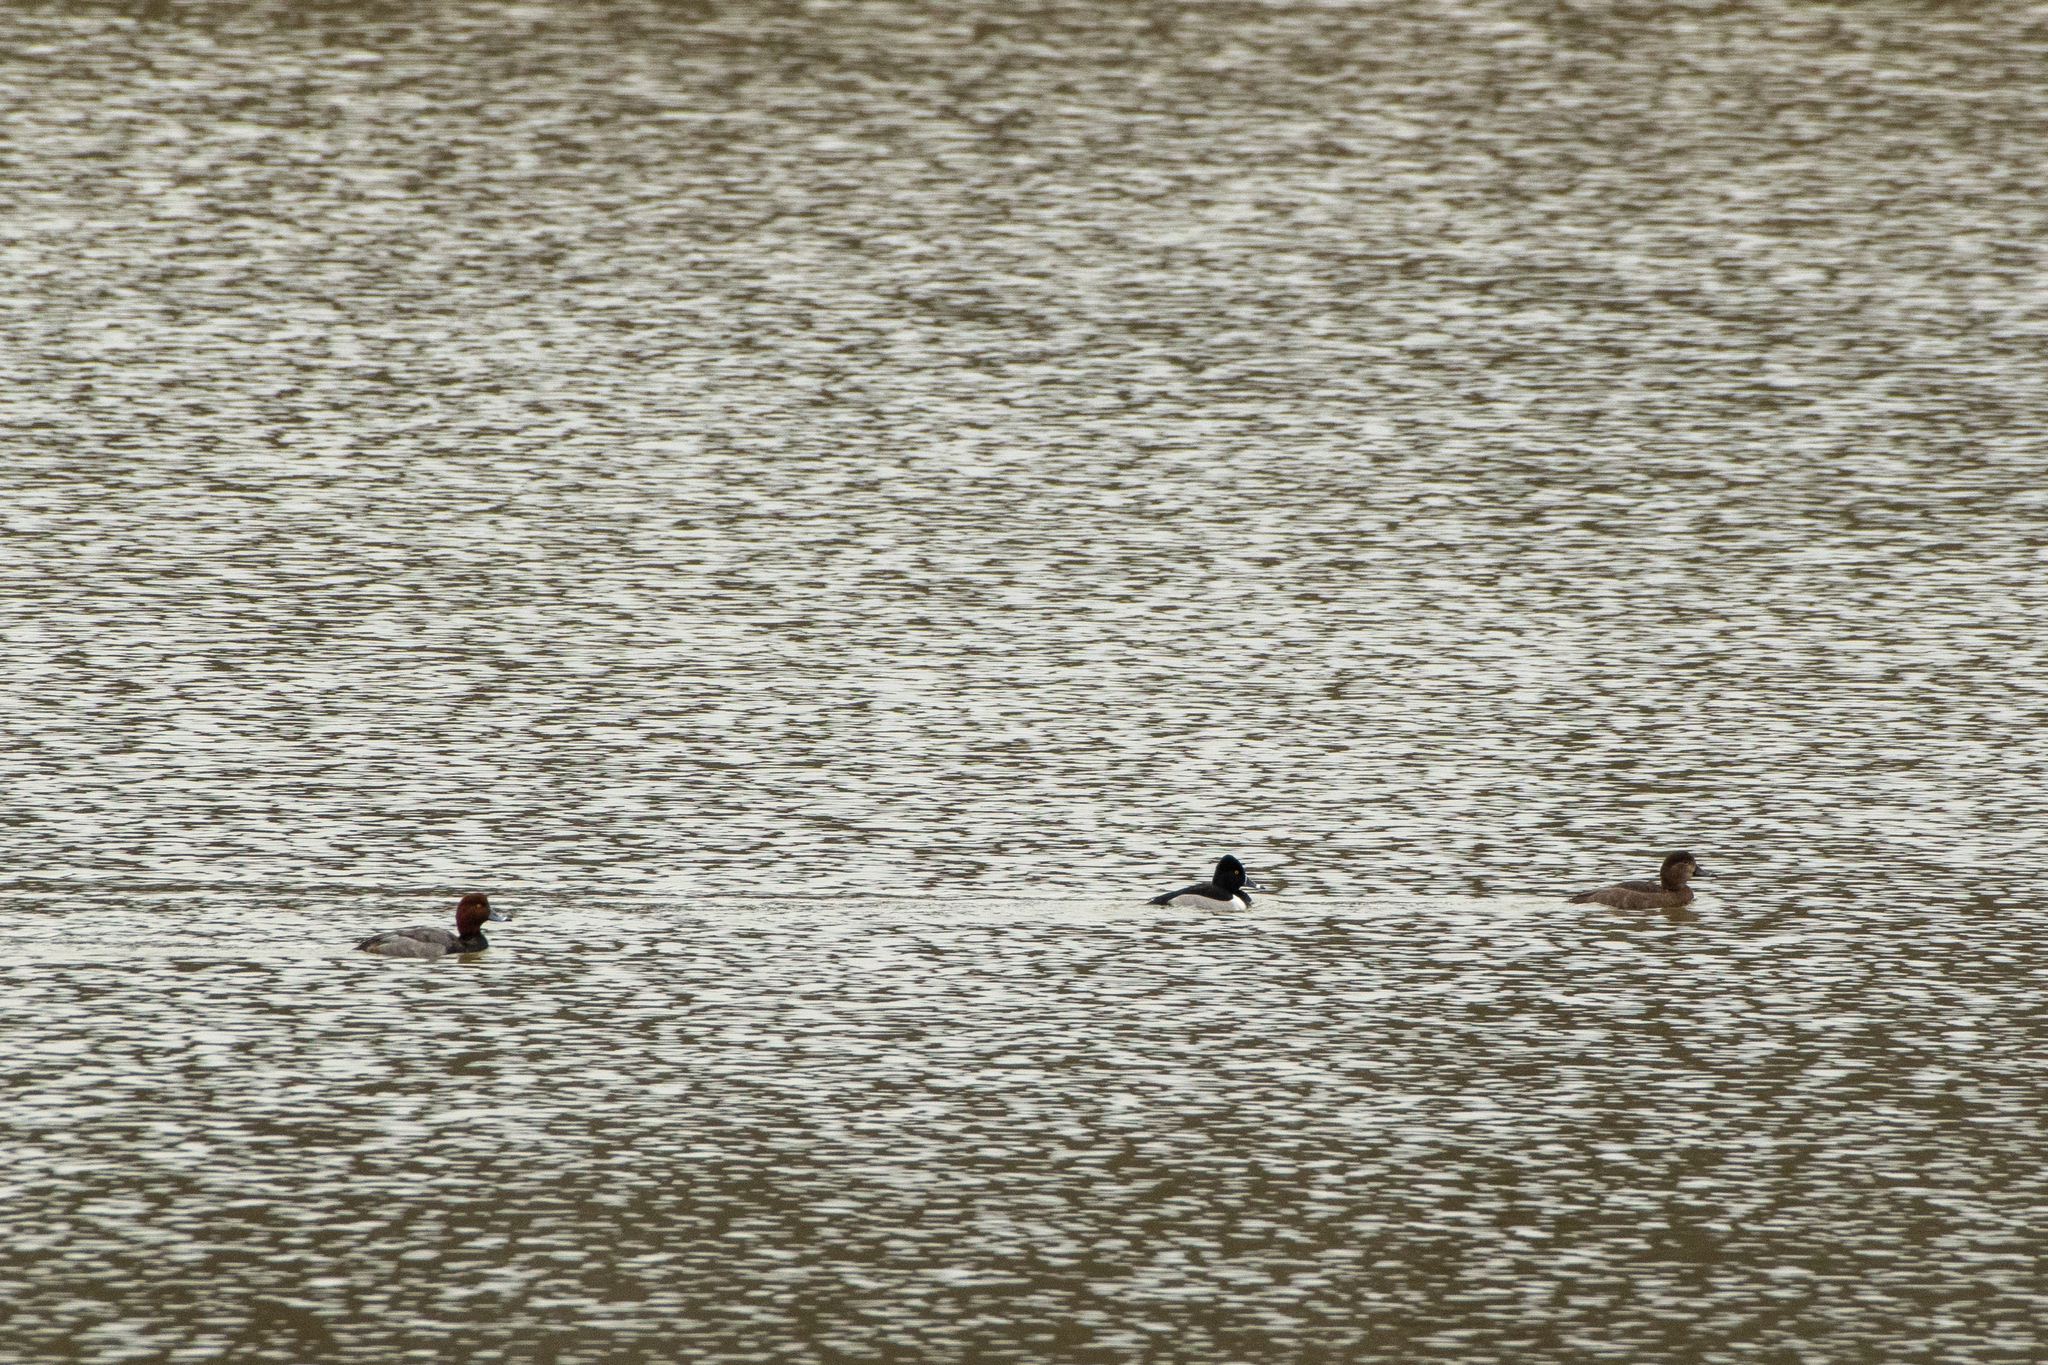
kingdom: Animalia
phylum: Chordata
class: Aves
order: Anseriformes
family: Anatidae
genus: Aythya
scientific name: Aythya collaris
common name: Ring-necked duck
